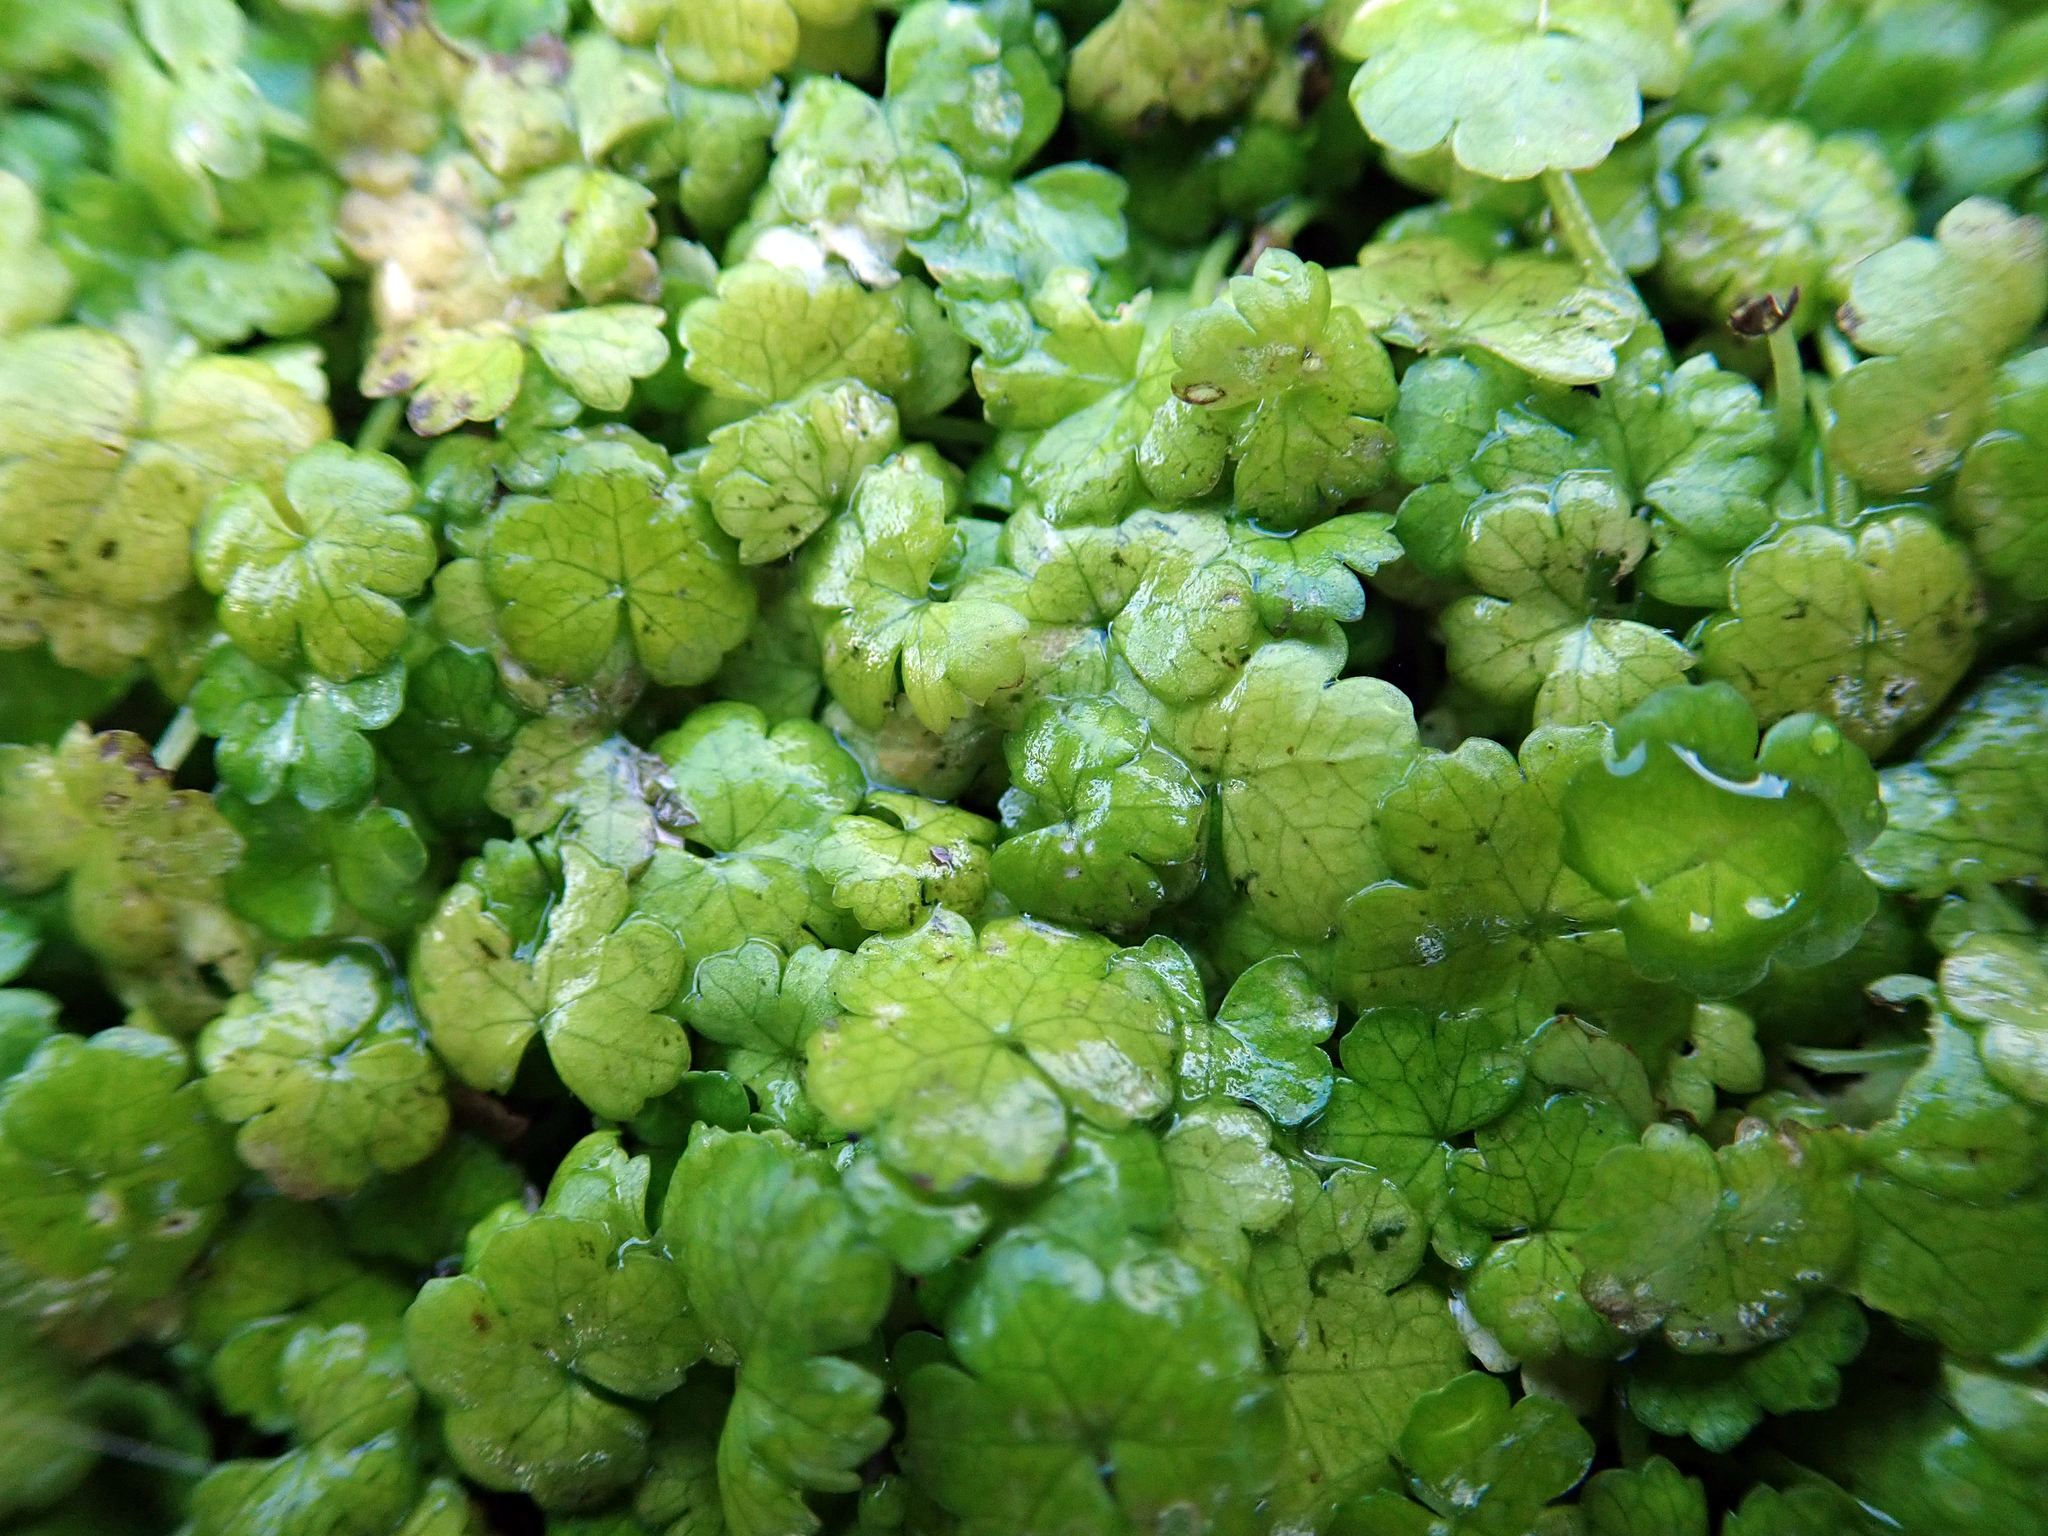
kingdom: Plantae
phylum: Tracheophyta
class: Magnoliopsida
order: Apiales
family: Araliaceae
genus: Hydrocotyle
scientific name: Hydrocotyle heteromeria
